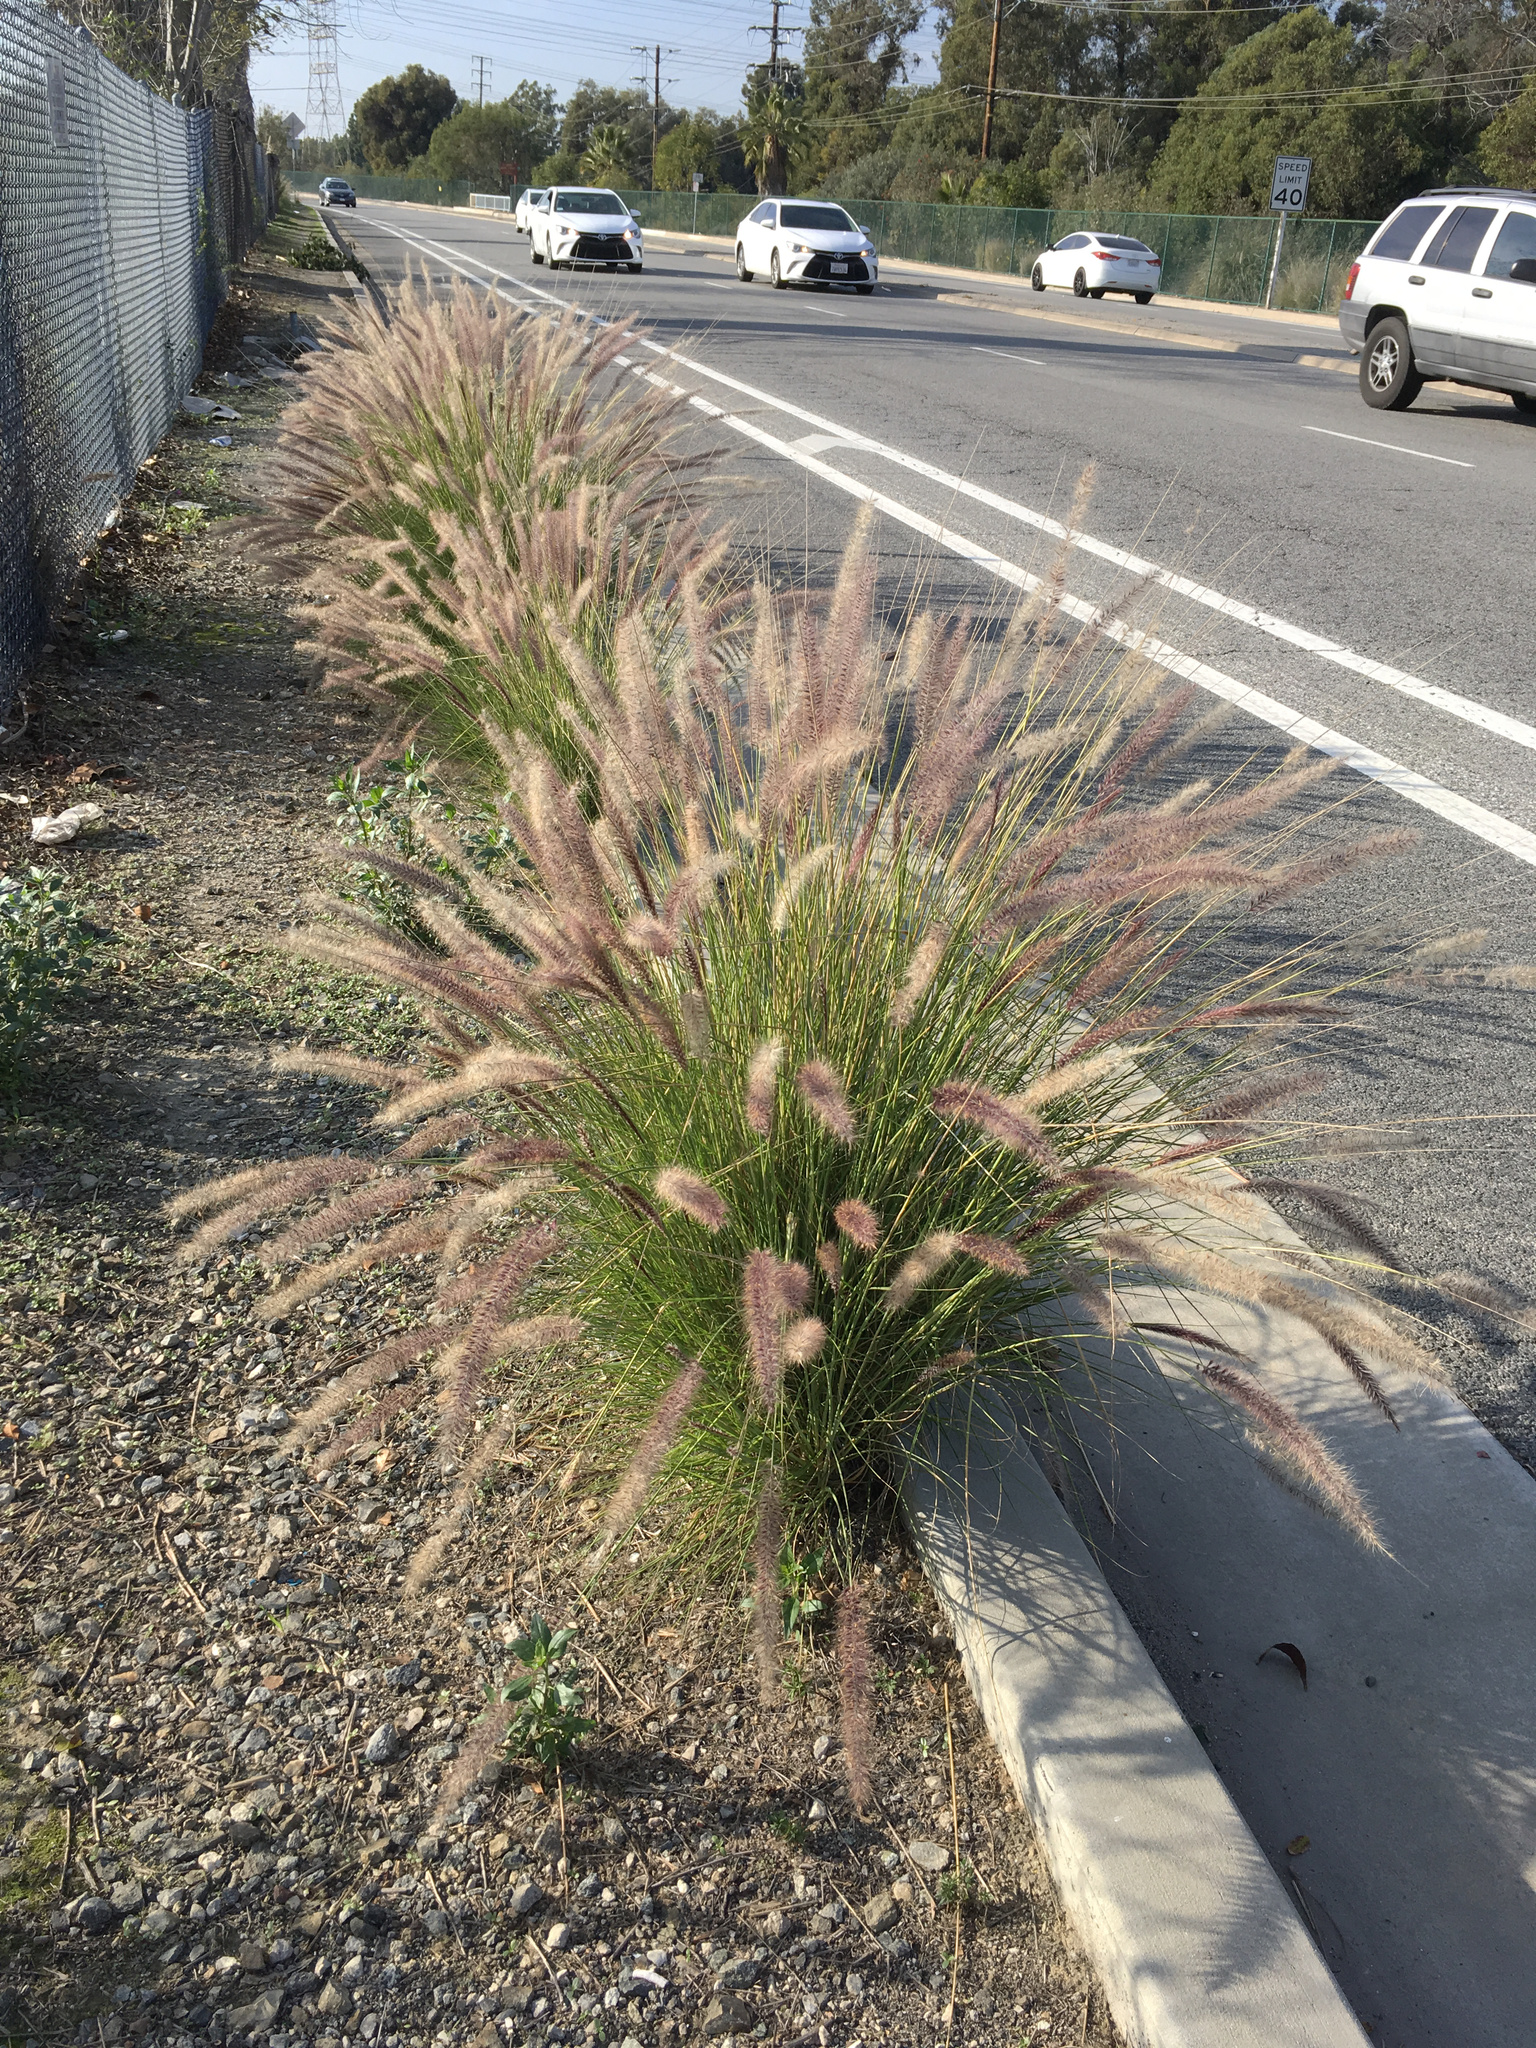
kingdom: Plantae
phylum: Tracheophyta
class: Liliopsida
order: Poales
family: Poaceae
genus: Cenchrus
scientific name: Cenchrus setaceus
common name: Crimson fountaingrass
